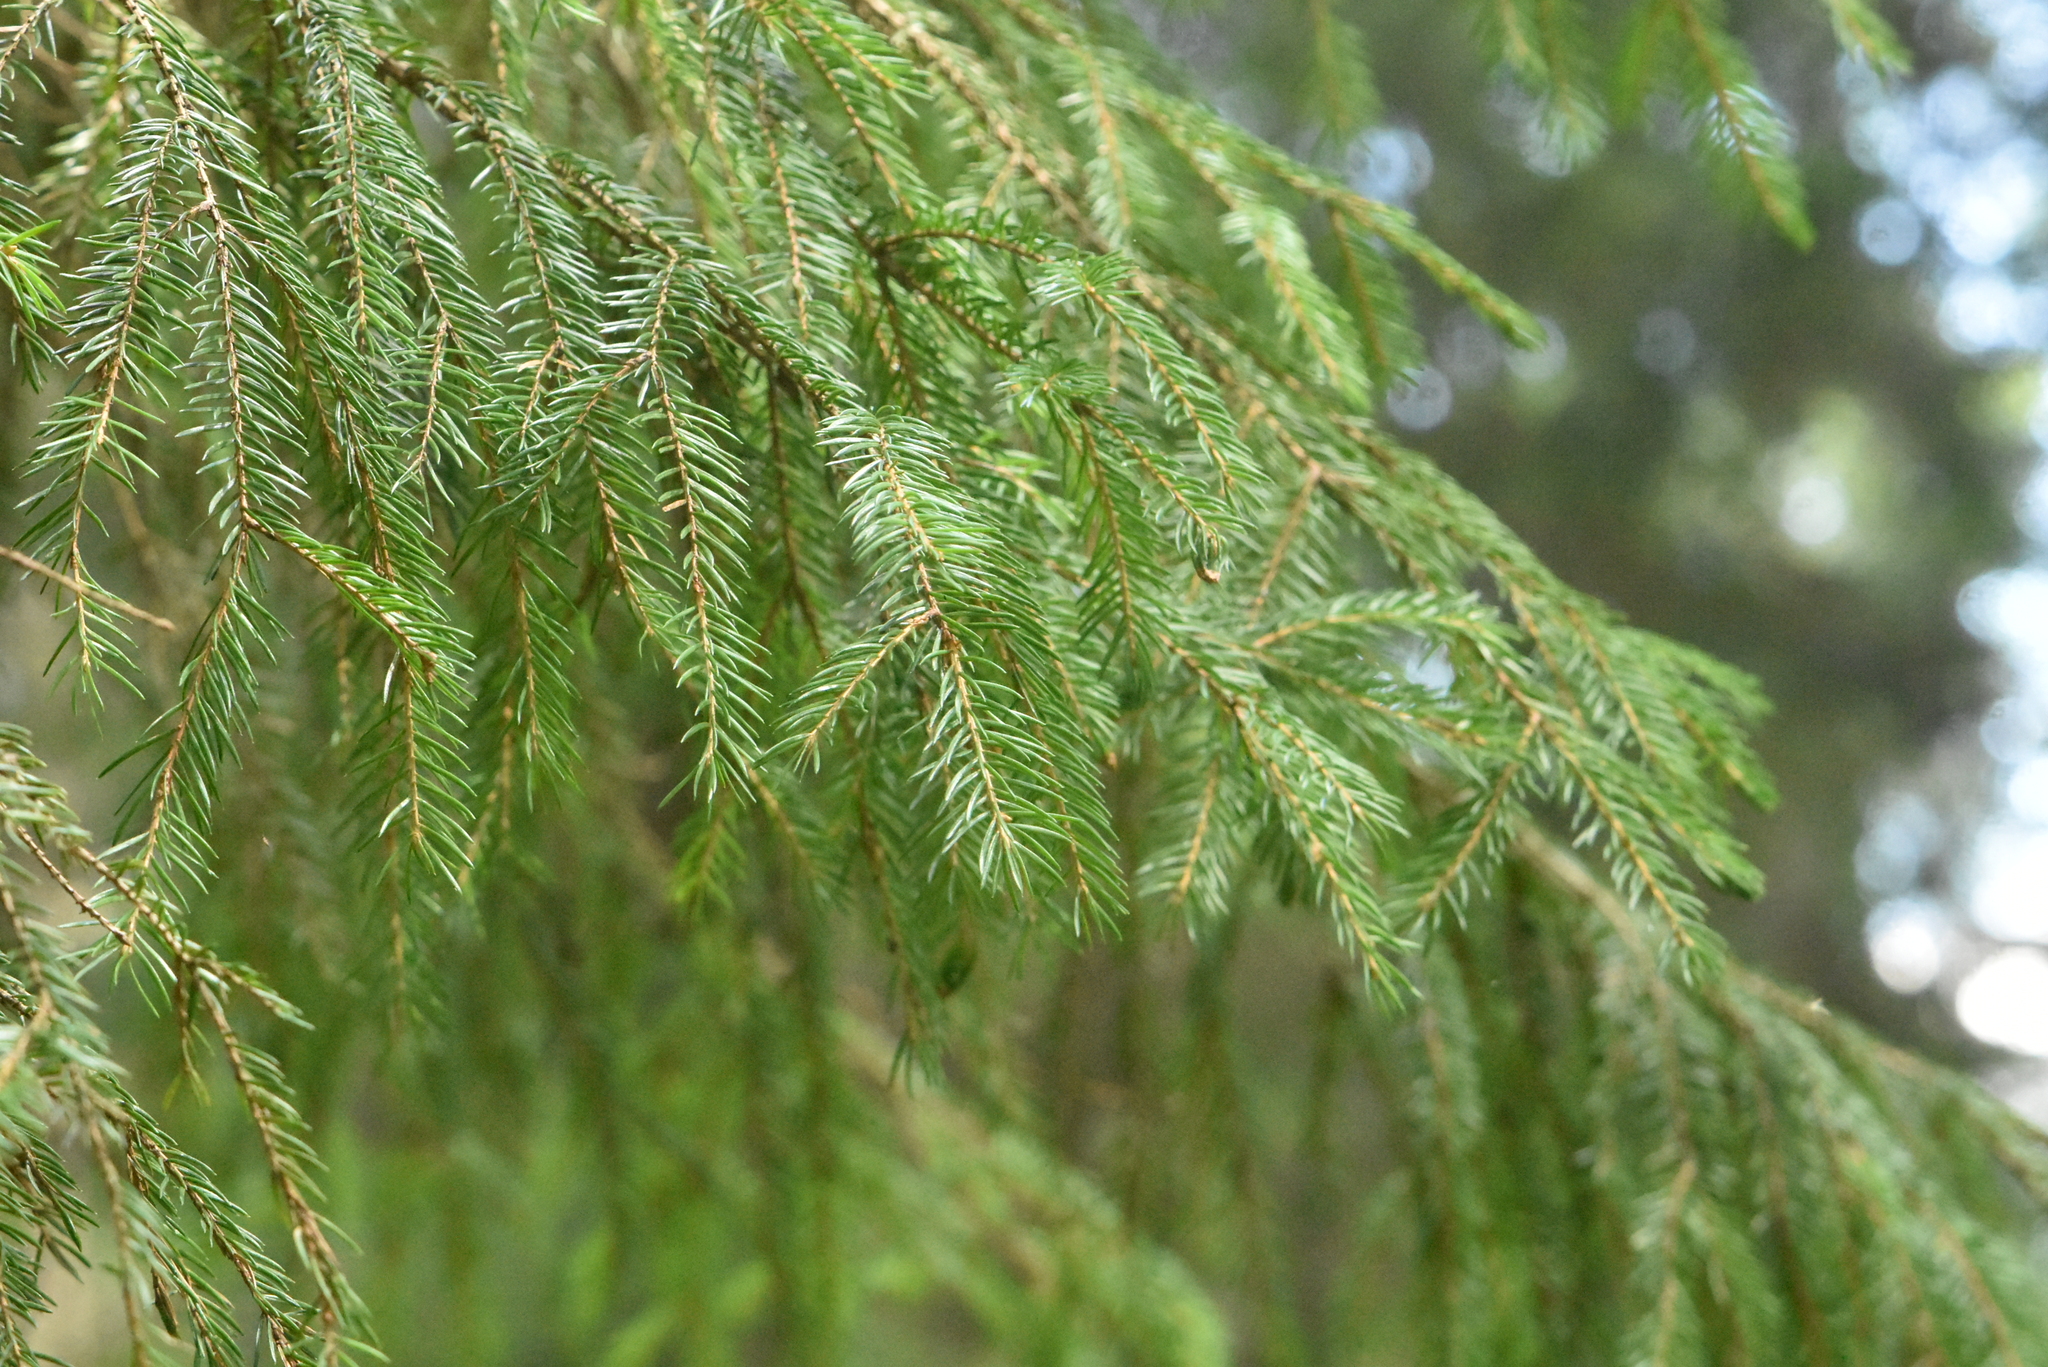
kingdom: Plantae
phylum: Tracheophyta
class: Pinopsida
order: Pinales
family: Pinaceae
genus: Picea
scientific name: Picea abies
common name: Norway spruce
